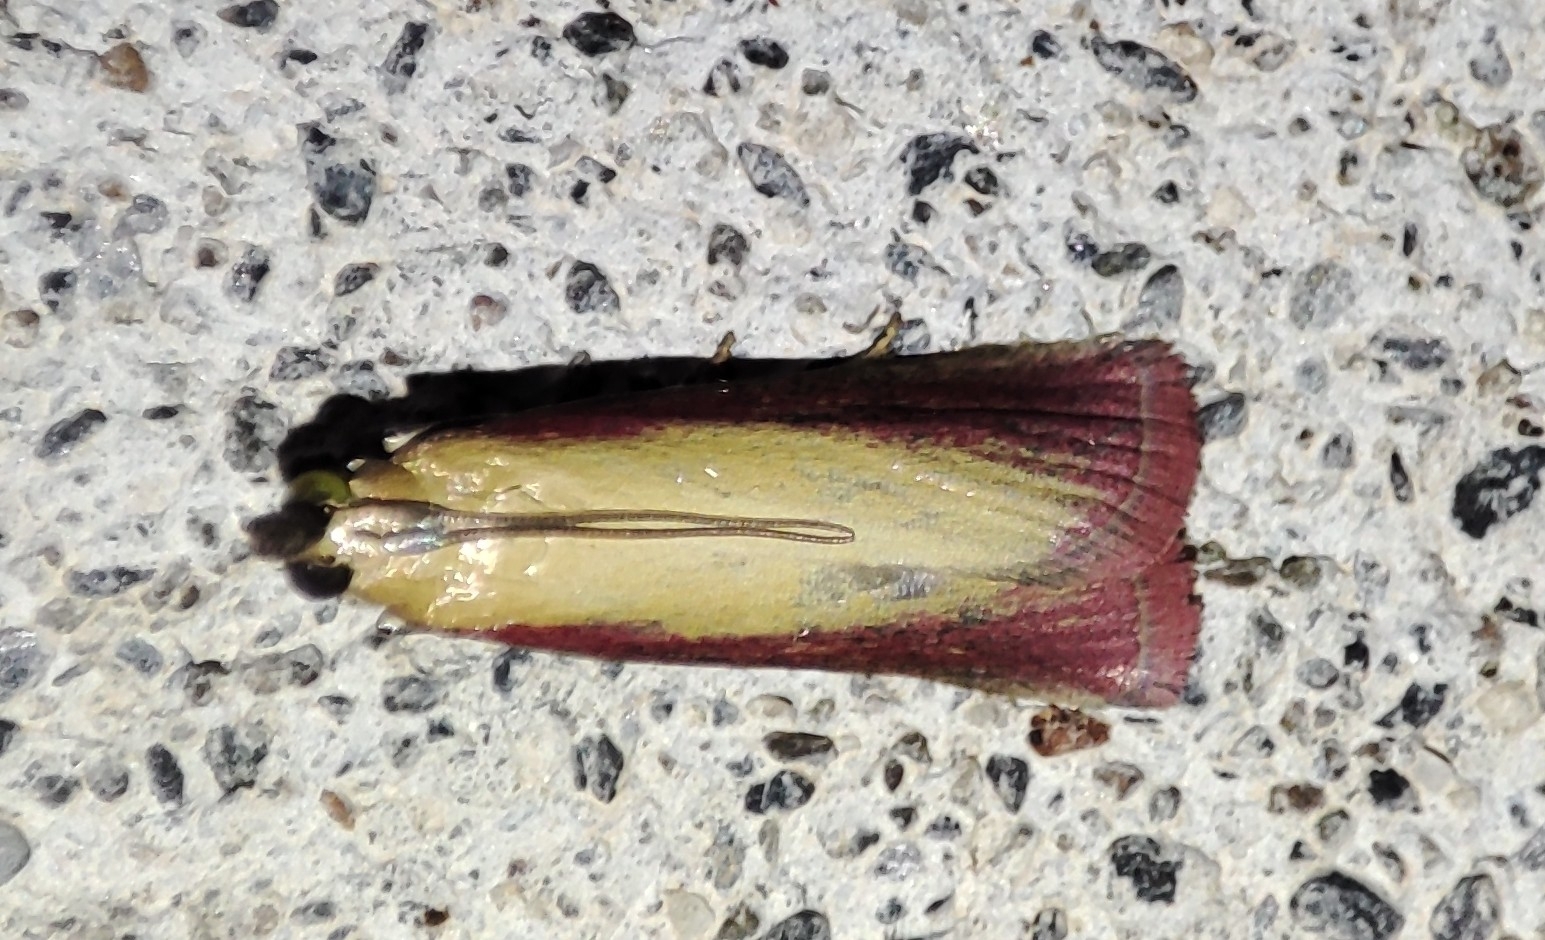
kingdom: Animalia
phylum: Arthropoda
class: Insecta
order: Lepidoptera
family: Pyralidae
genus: Oncocera
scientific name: Oncocera semirubella
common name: Rosy-striped knot-horn
